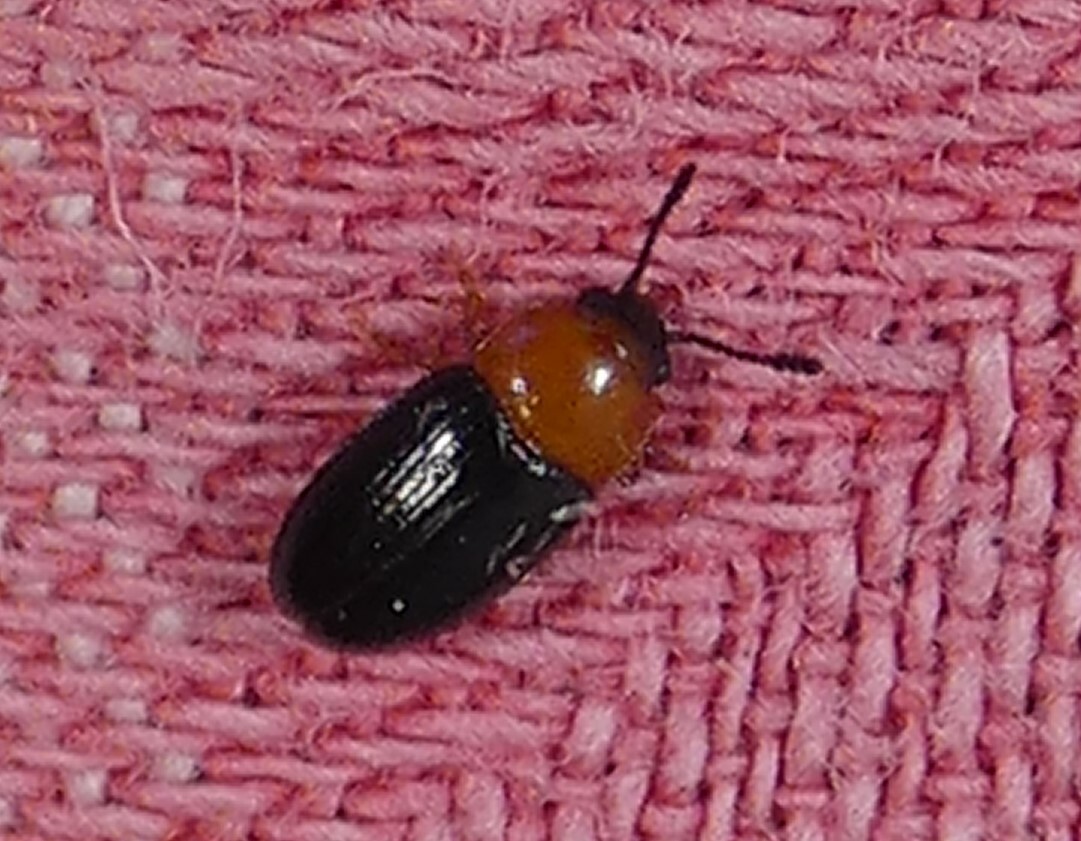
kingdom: Animalia
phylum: Arthropoda
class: Insecta
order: Coleoptera
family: Erotylidae
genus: Triplax
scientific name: Triplax frontalis
